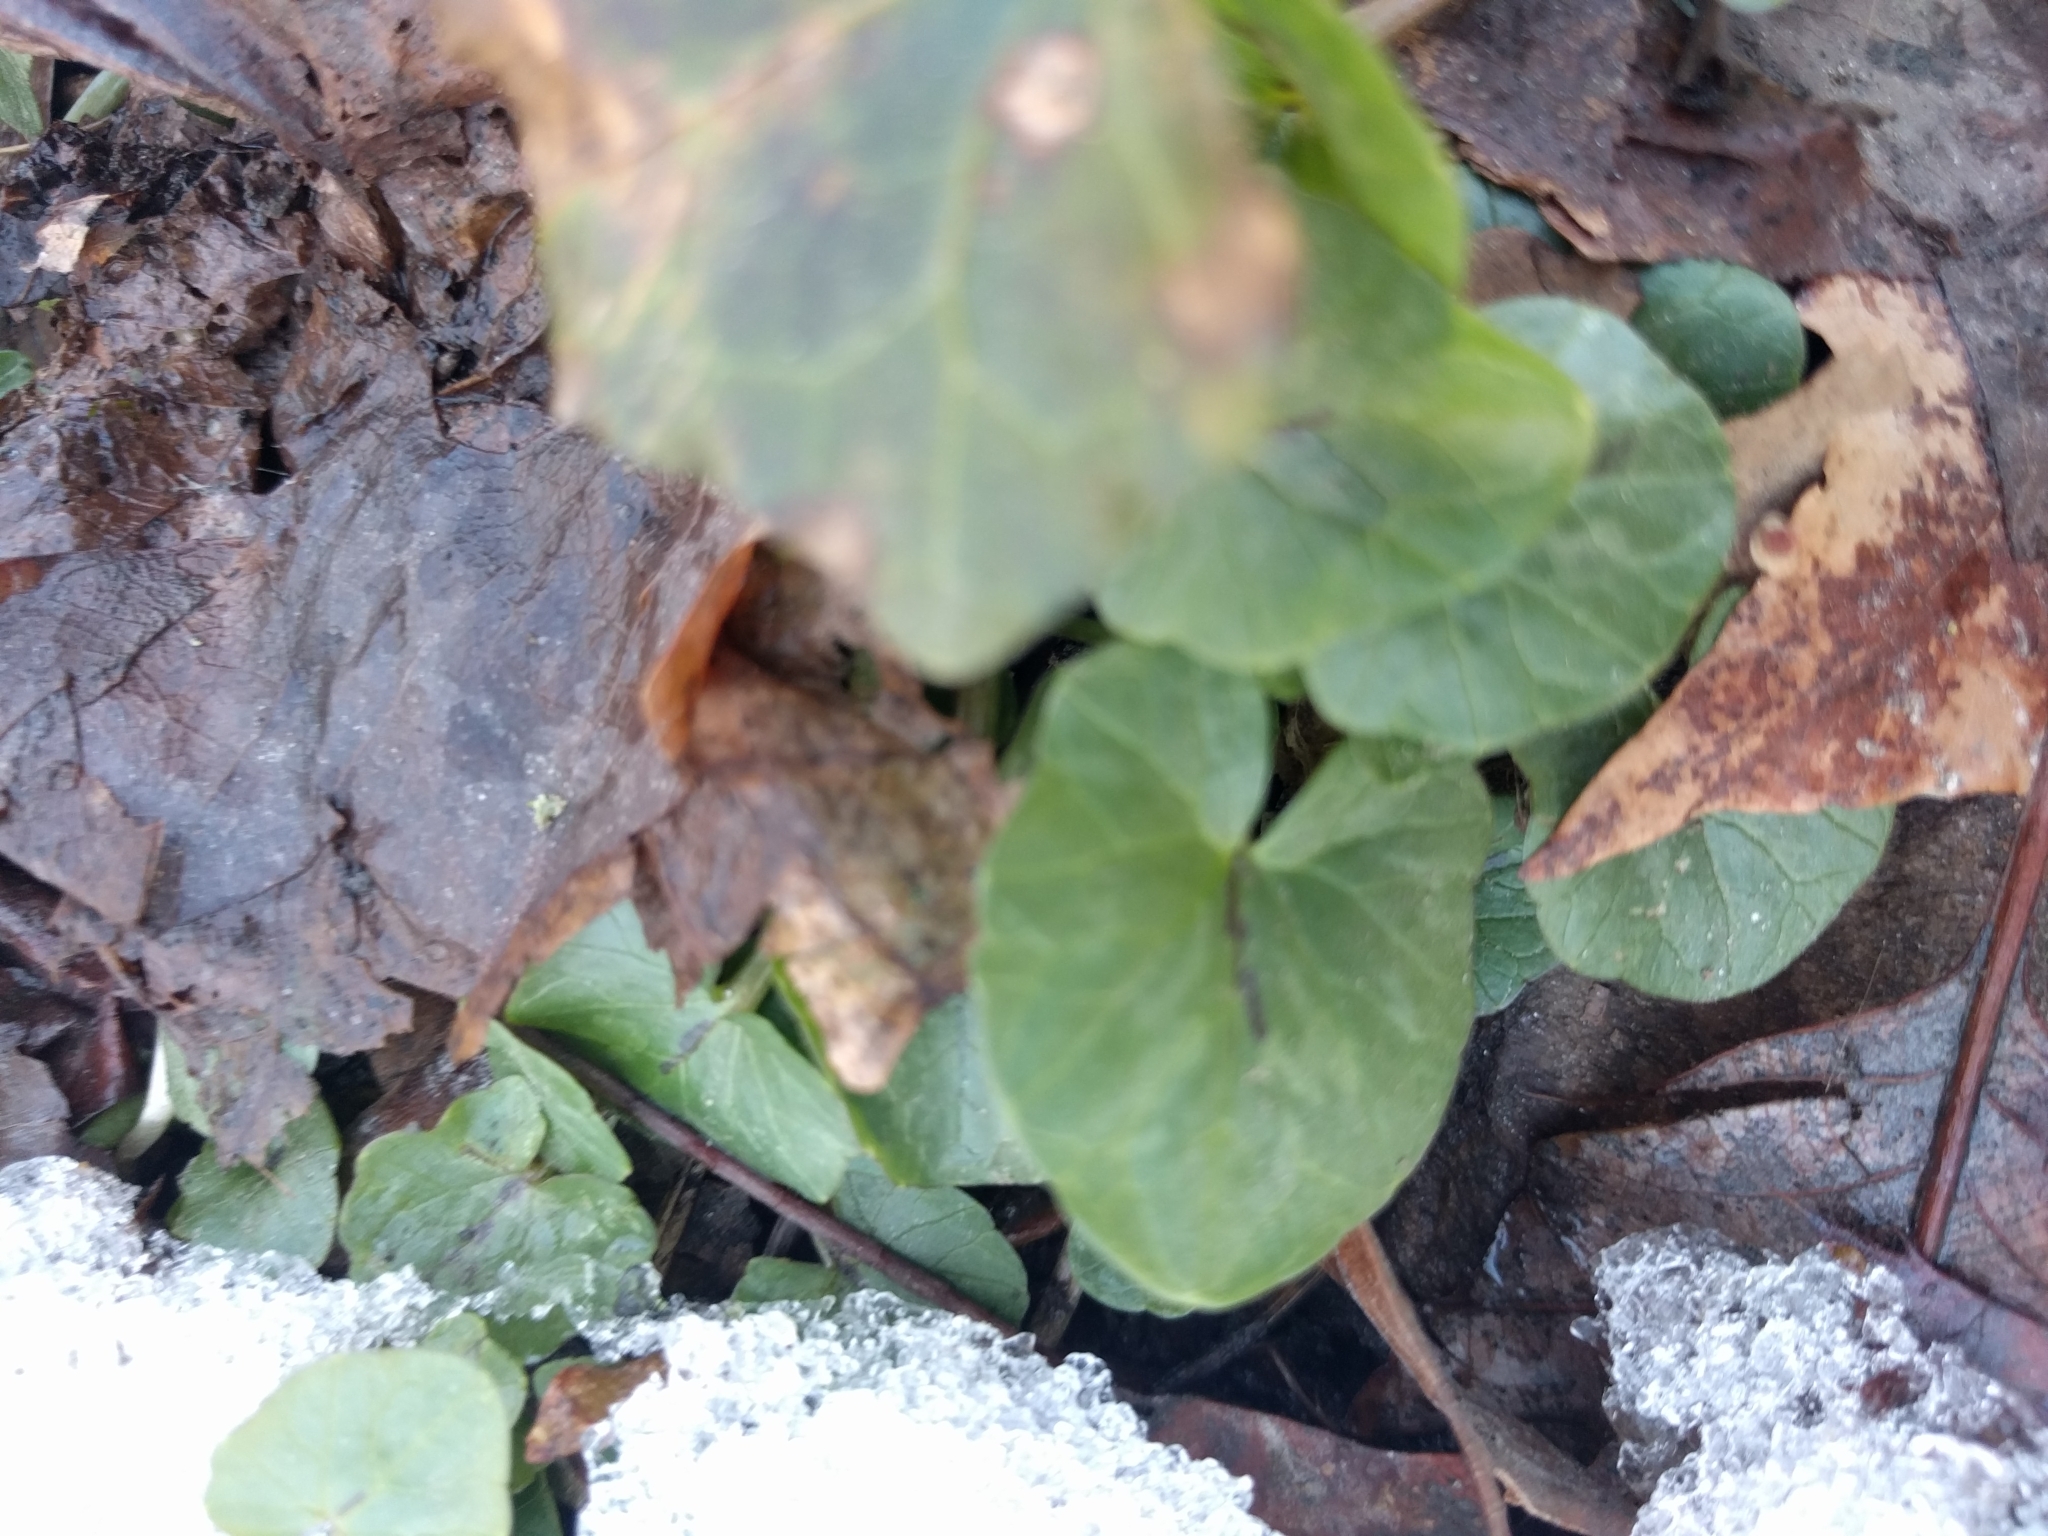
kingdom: Plantae
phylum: Tracheophyta
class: Magnoliopsida
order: Ranunculales
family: Ranunculaceae
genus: Ficaria
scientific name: Ficaria verna
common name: Lesser celandine
